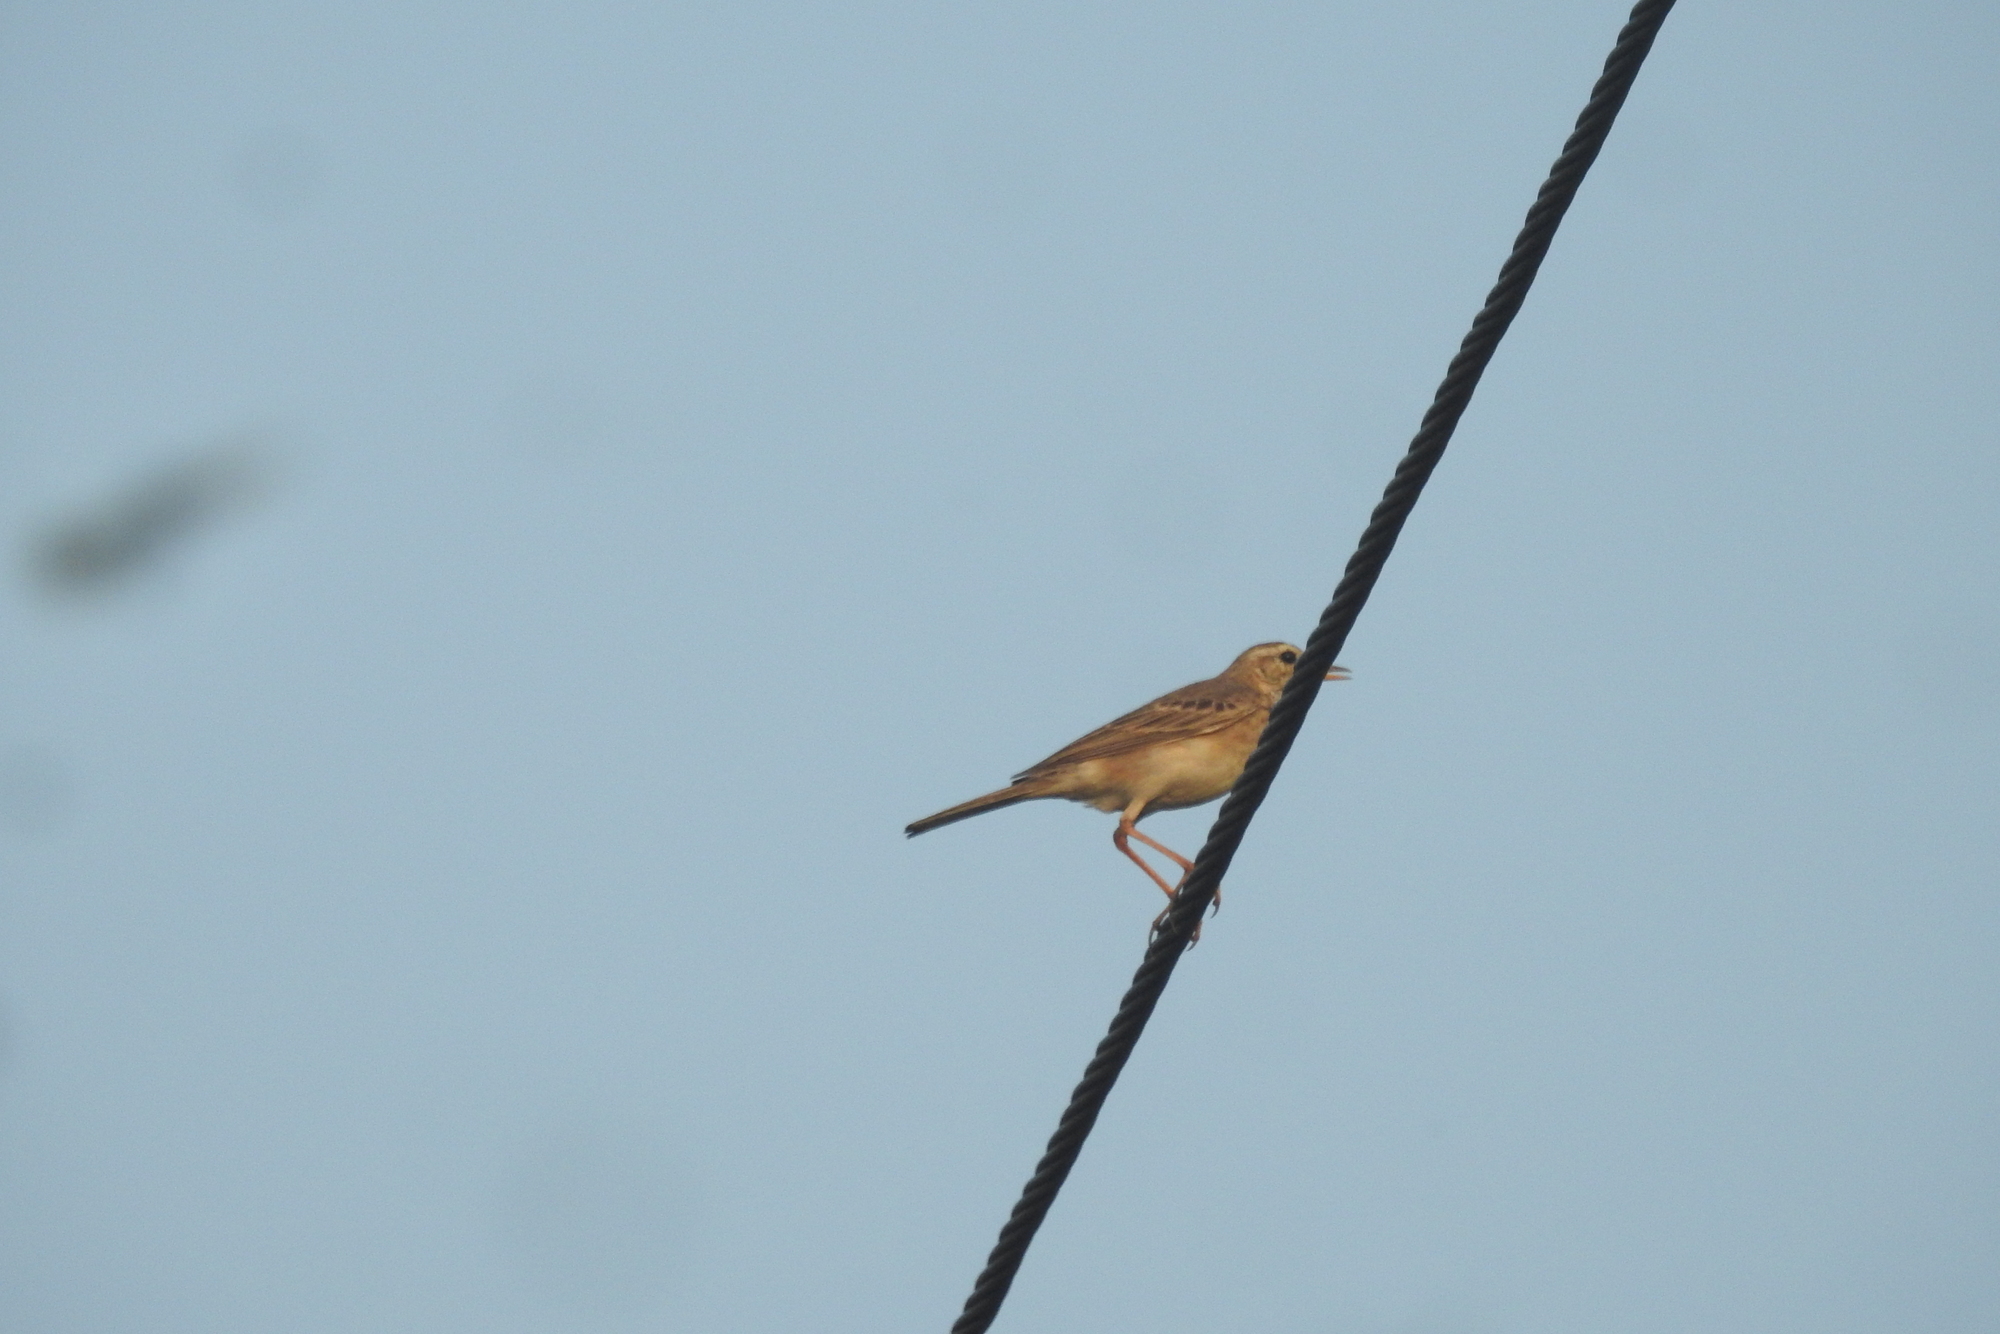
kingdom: Animalia
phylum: Chordata
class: Aves
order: Passeriformes
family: Motacillidae
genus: Anthus
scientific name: Anthus rufulus
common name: Paddyfield pipit
